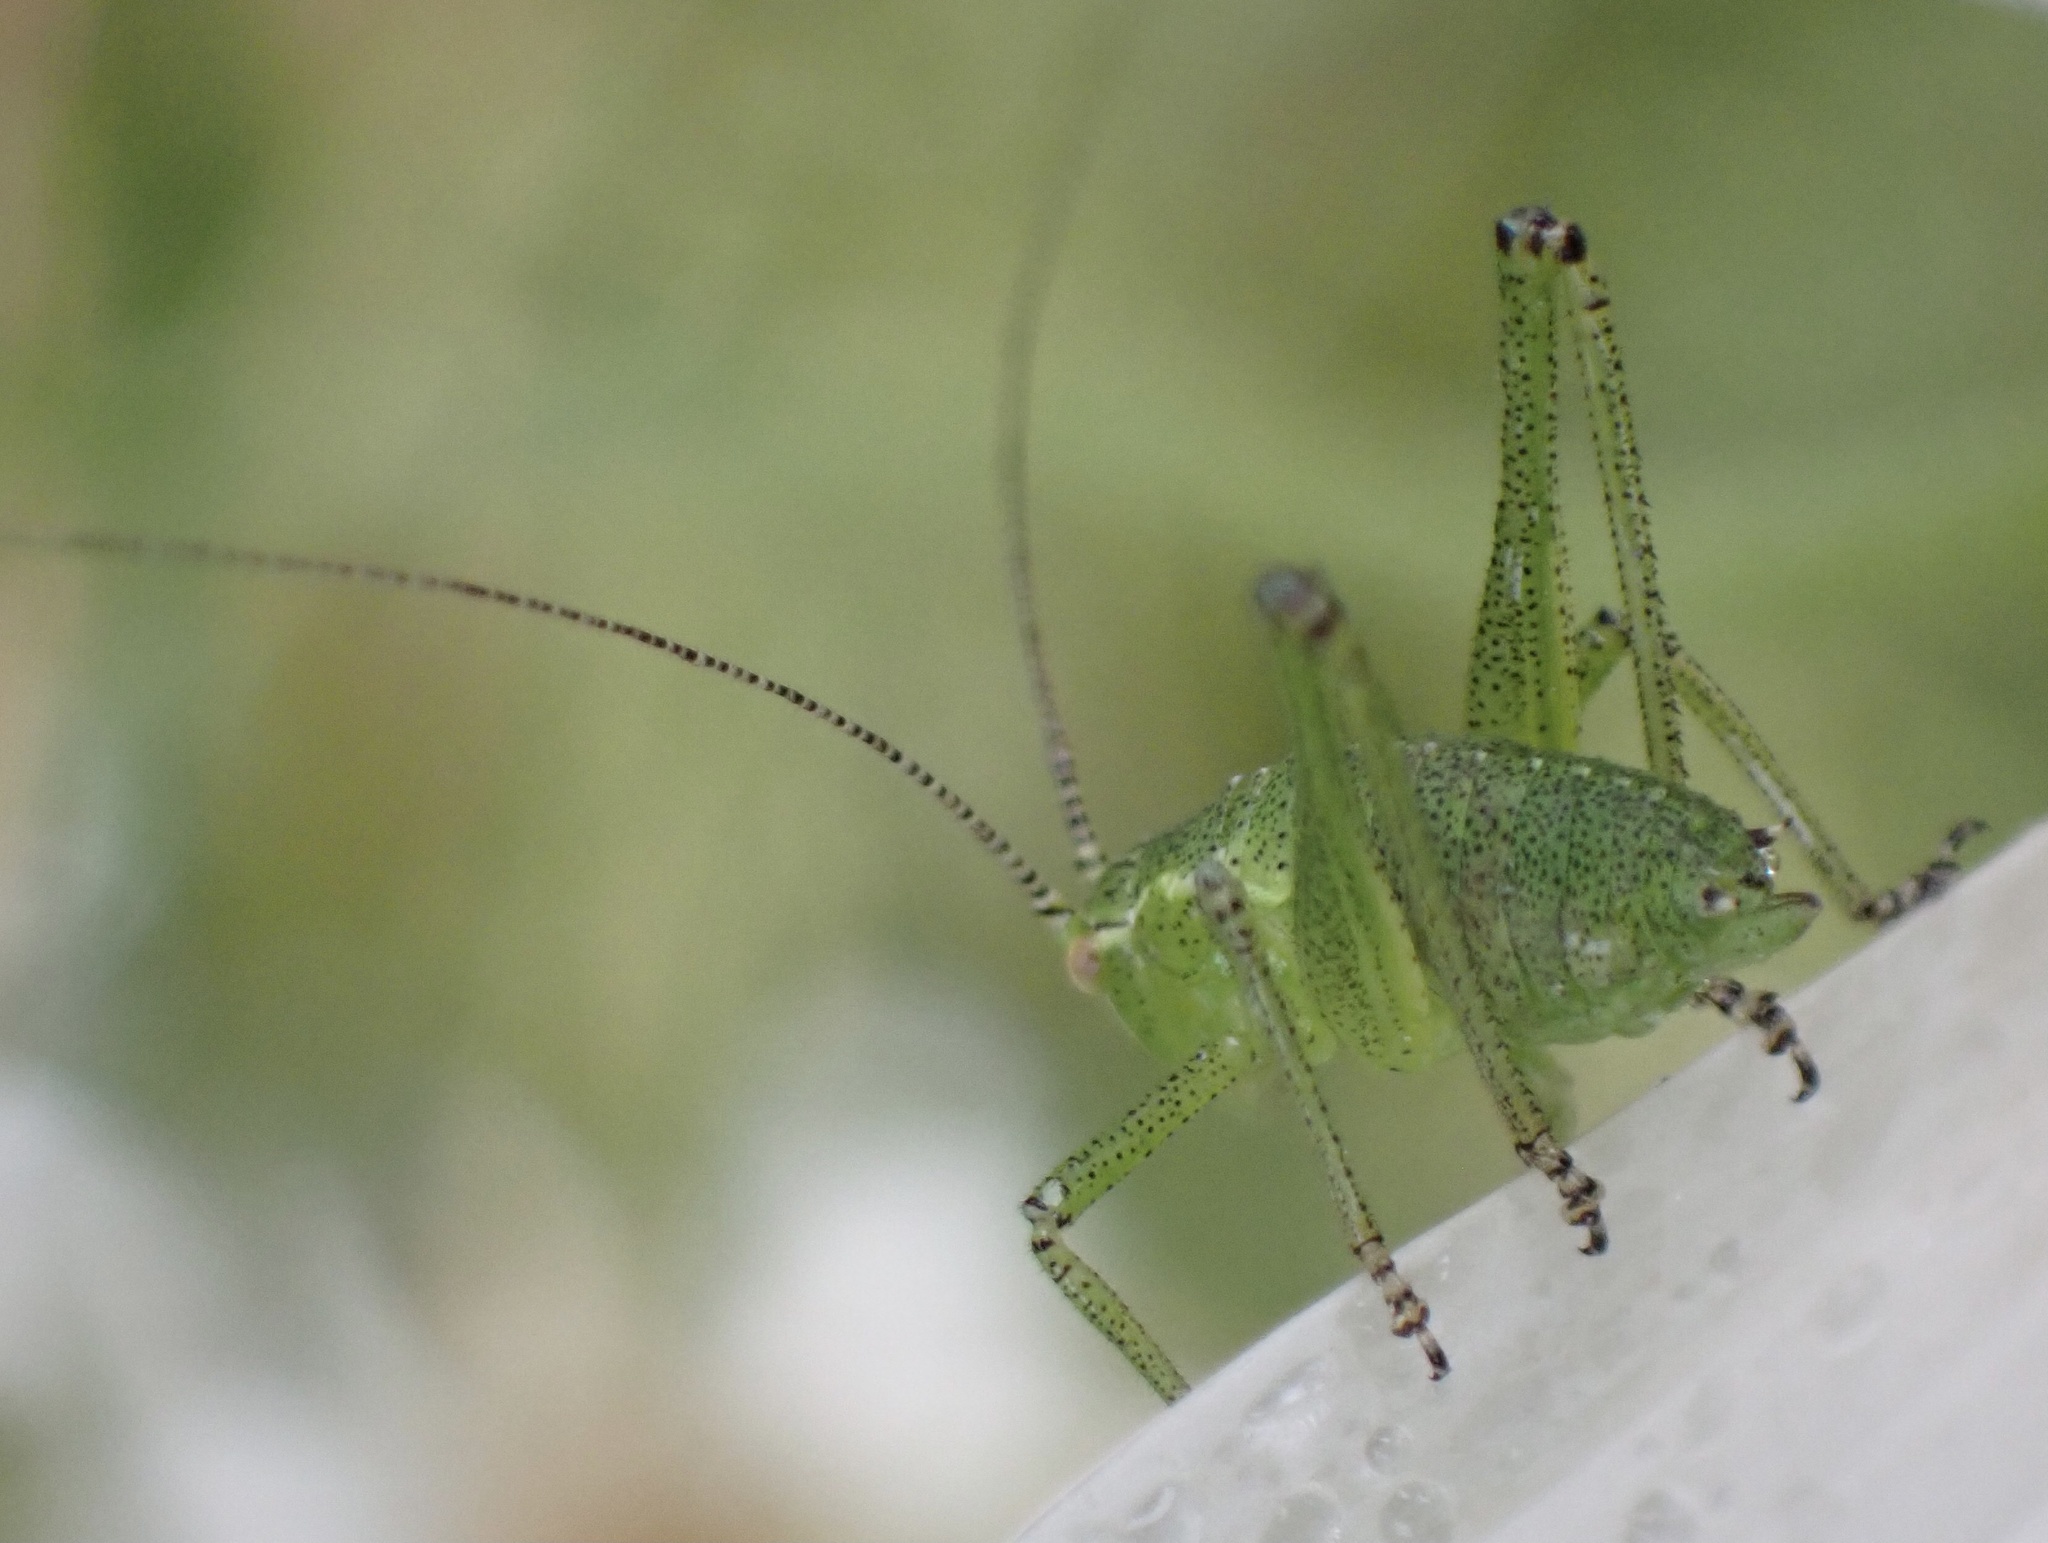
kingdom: Animalia
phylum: Arthropoda
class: Insecta
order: Orthoptera
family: Tettigoniidae
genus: Leptophyes
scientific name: Leptophyes punctatissima
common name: Speckled bush-cricket
